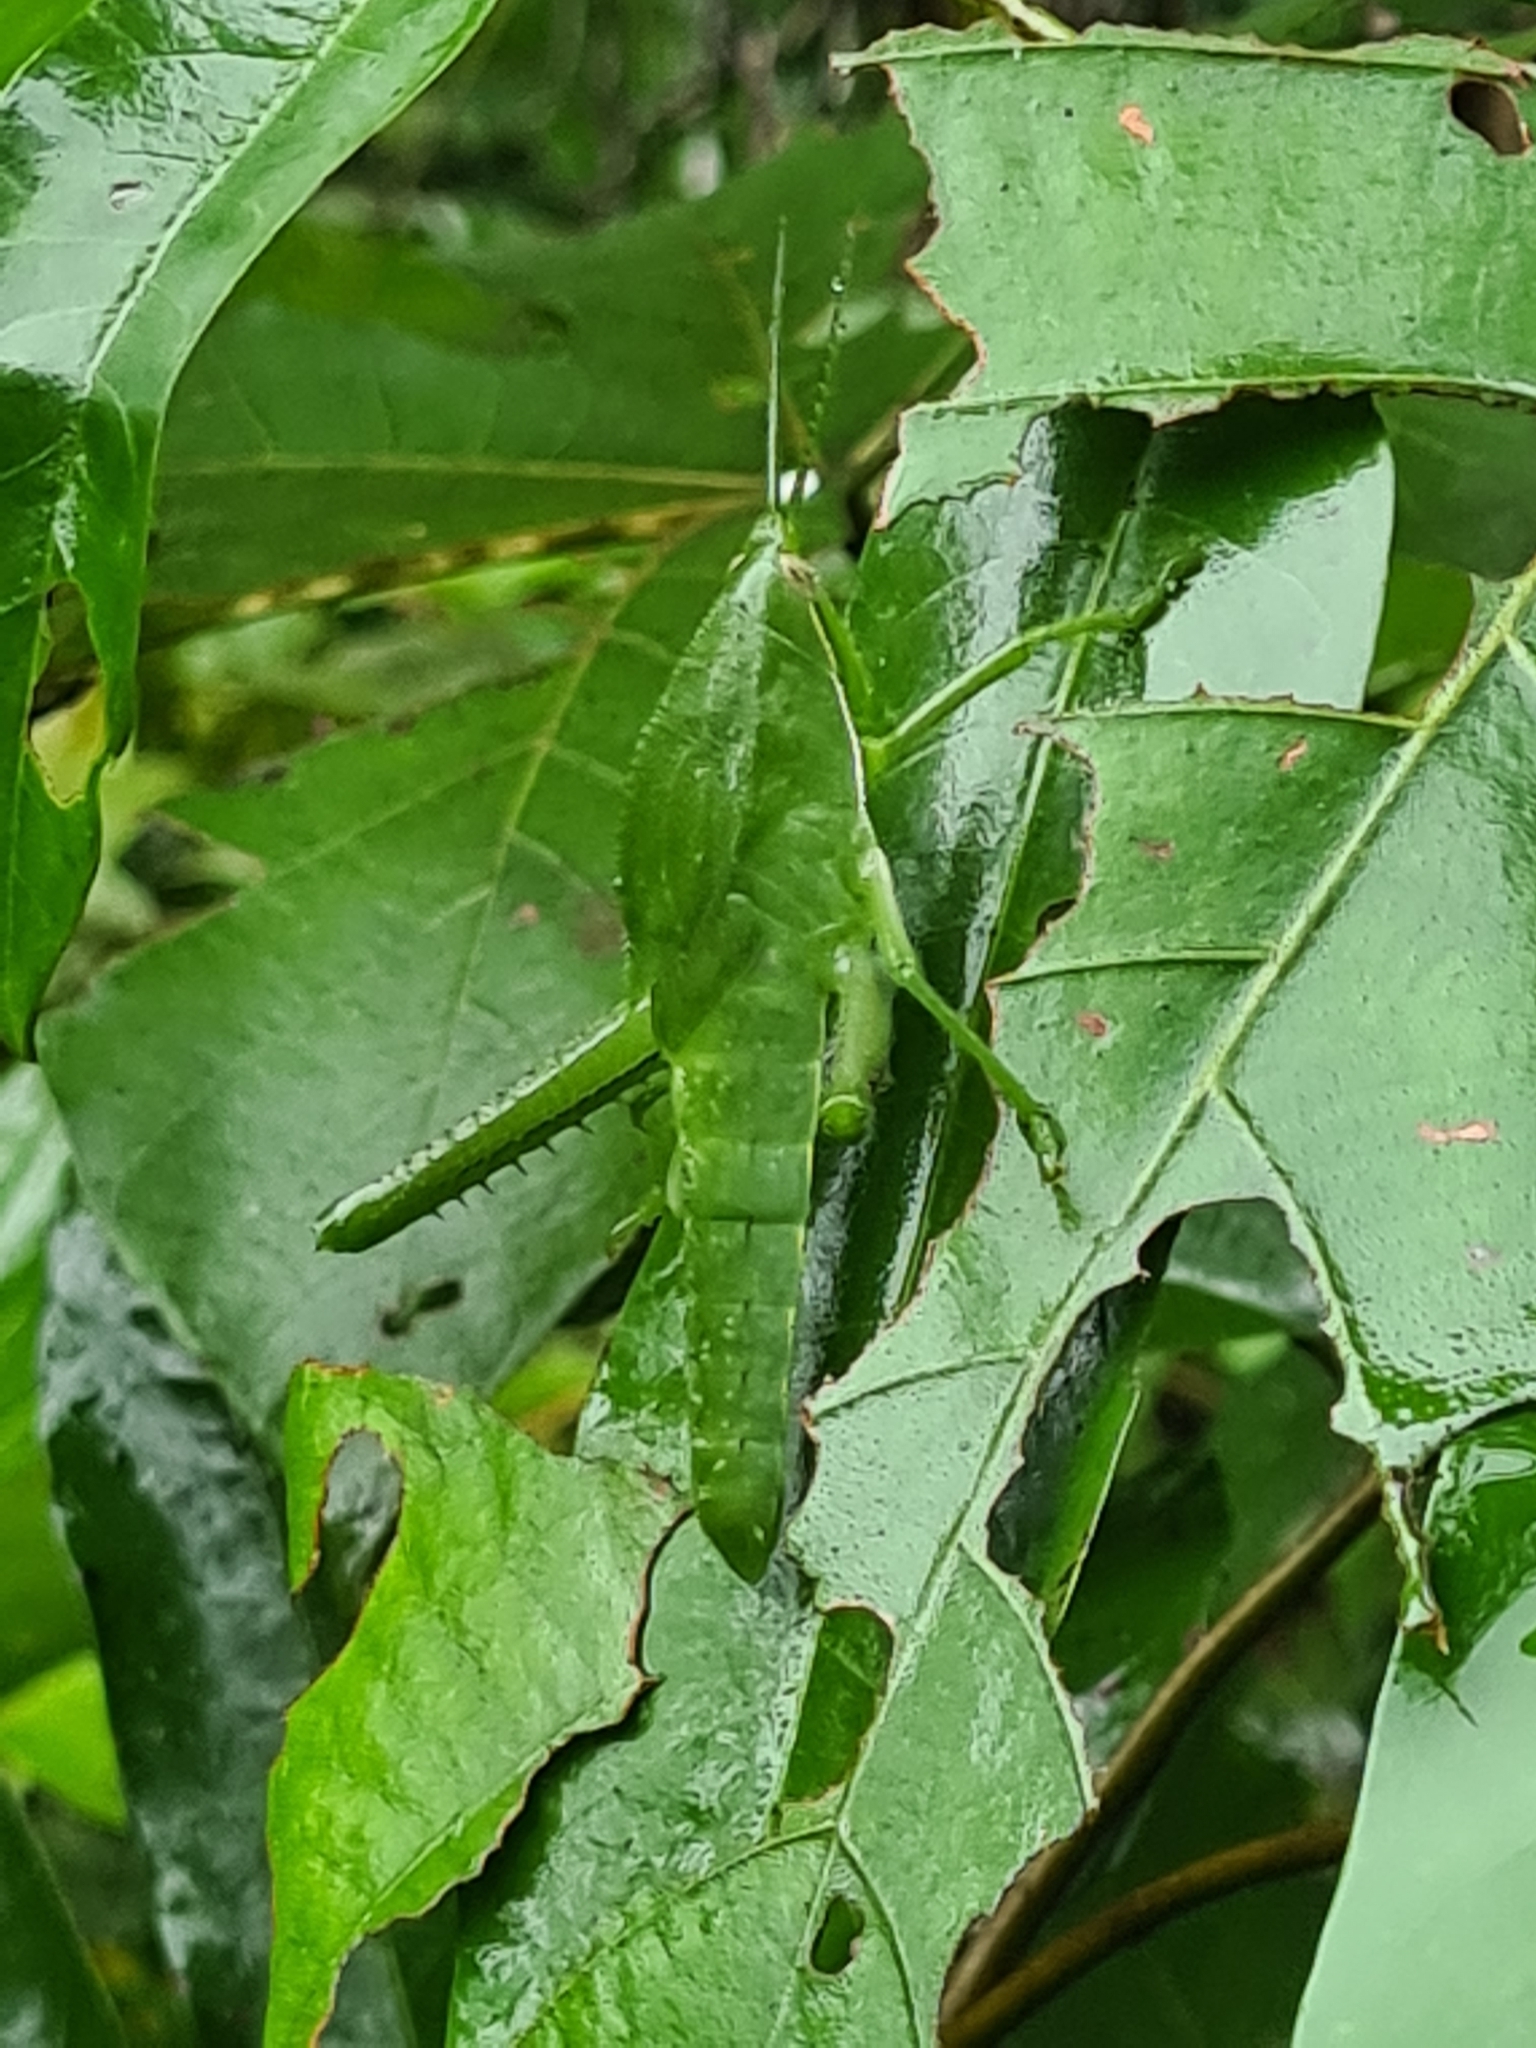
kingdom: Animalia
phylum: Arthropoda
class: Insecta
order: Orthoptera
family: Romaleidae
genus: Prionolopha
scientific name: Prionolopha serrata
